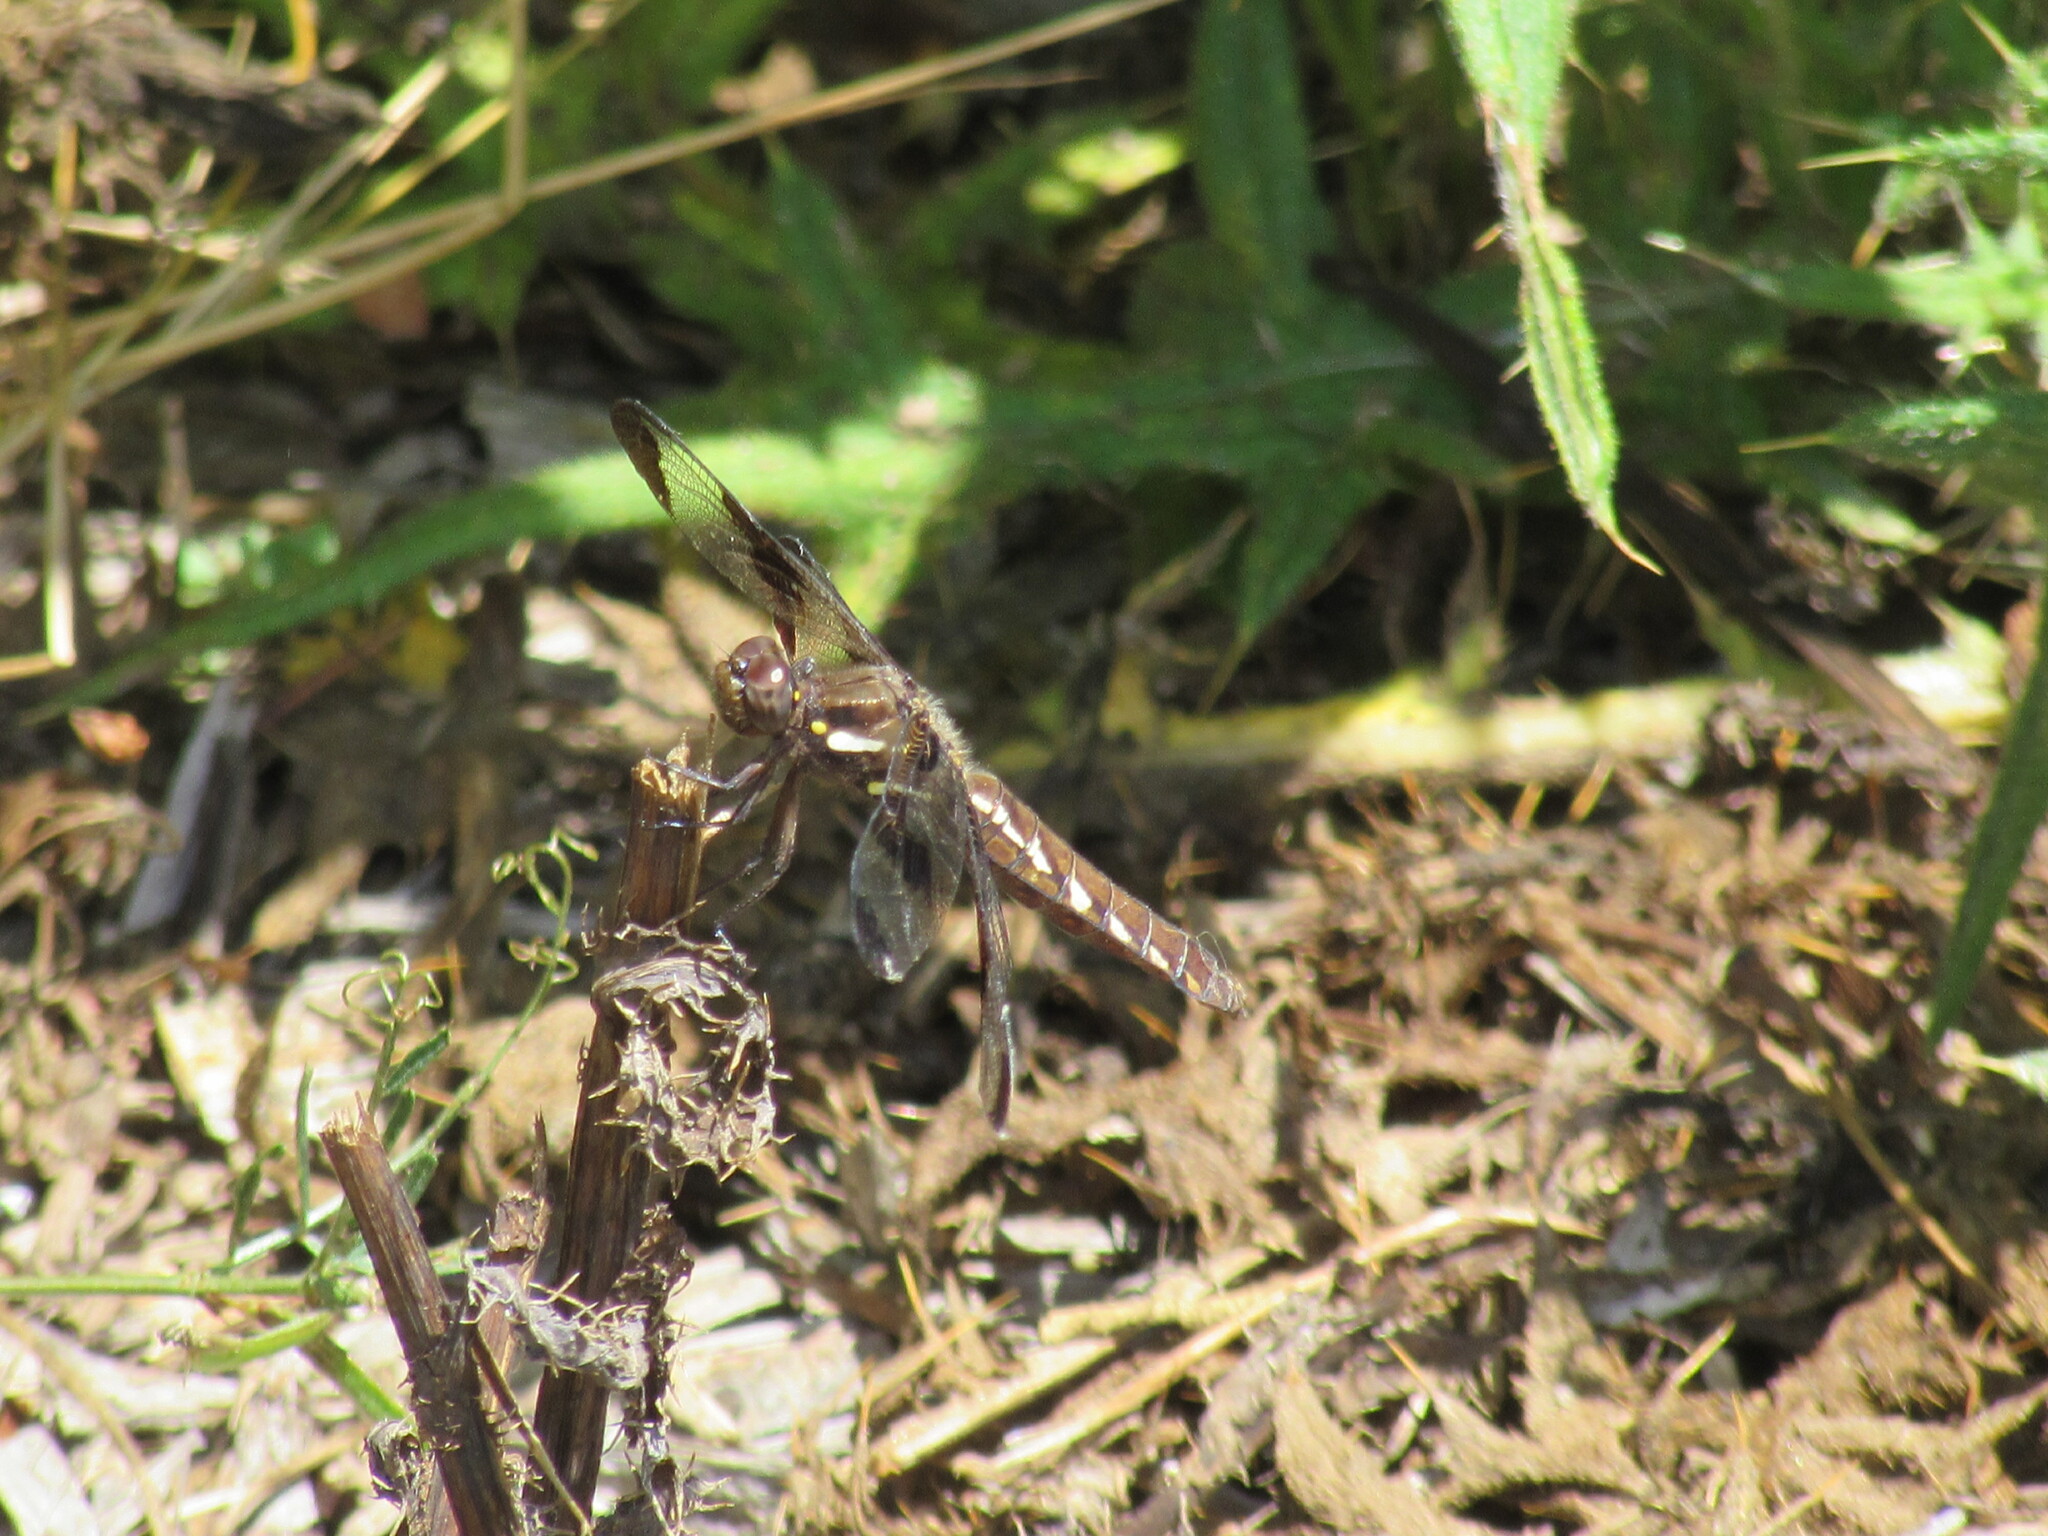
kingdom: Animalia
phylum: Arthropoda
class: Insecta
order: Odonata
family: Libellulidae
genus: Plathemis
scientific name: Plathemis lydia
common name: Common whitetail
